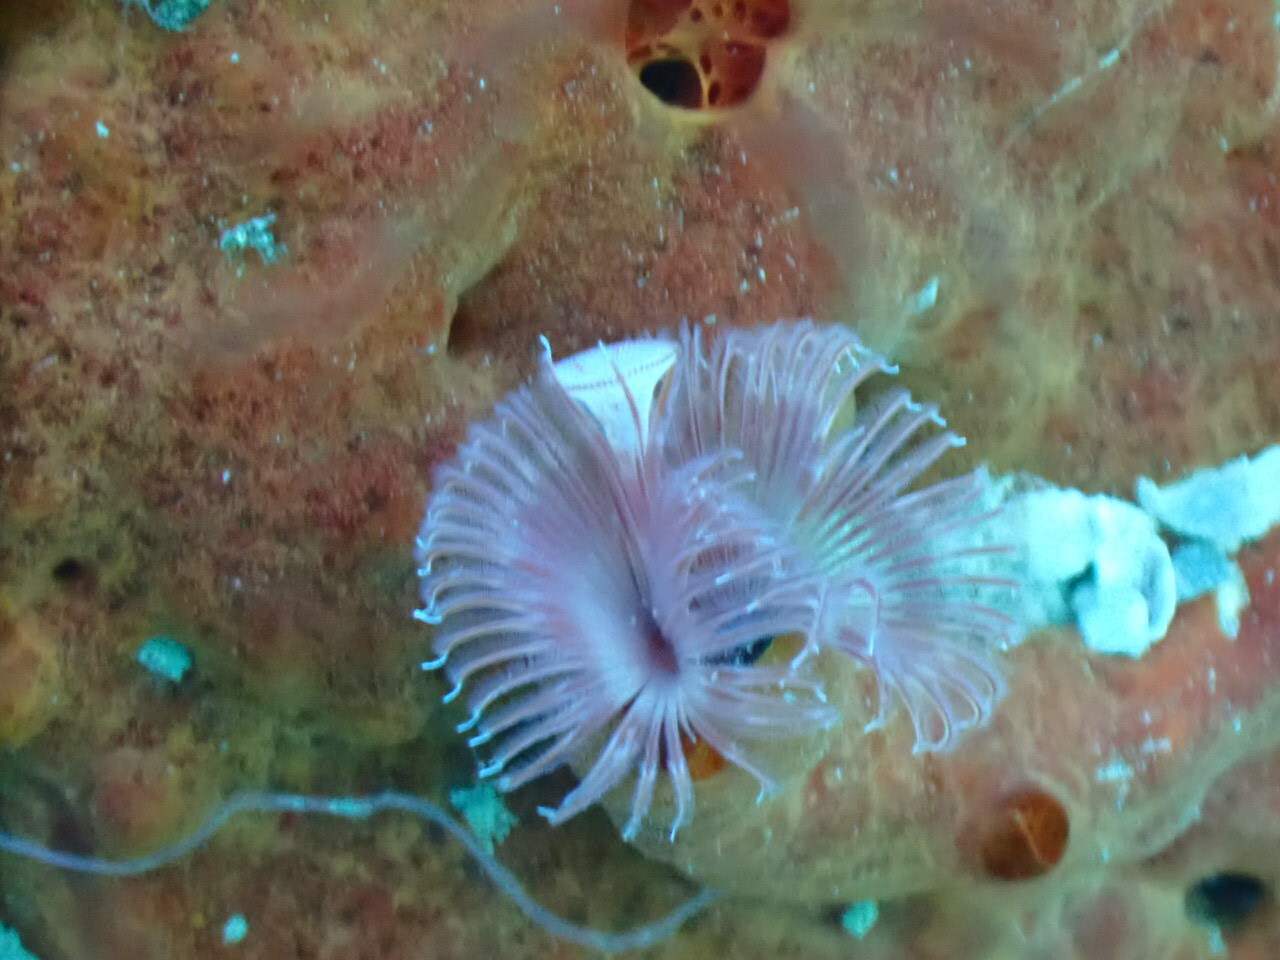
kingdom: Animalia
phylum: Annelida
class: Polychaeta
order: Sabellida
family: Serpulidae
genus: Serpula
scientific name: Serpula vermicularis
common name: Calcareous tubeworm
